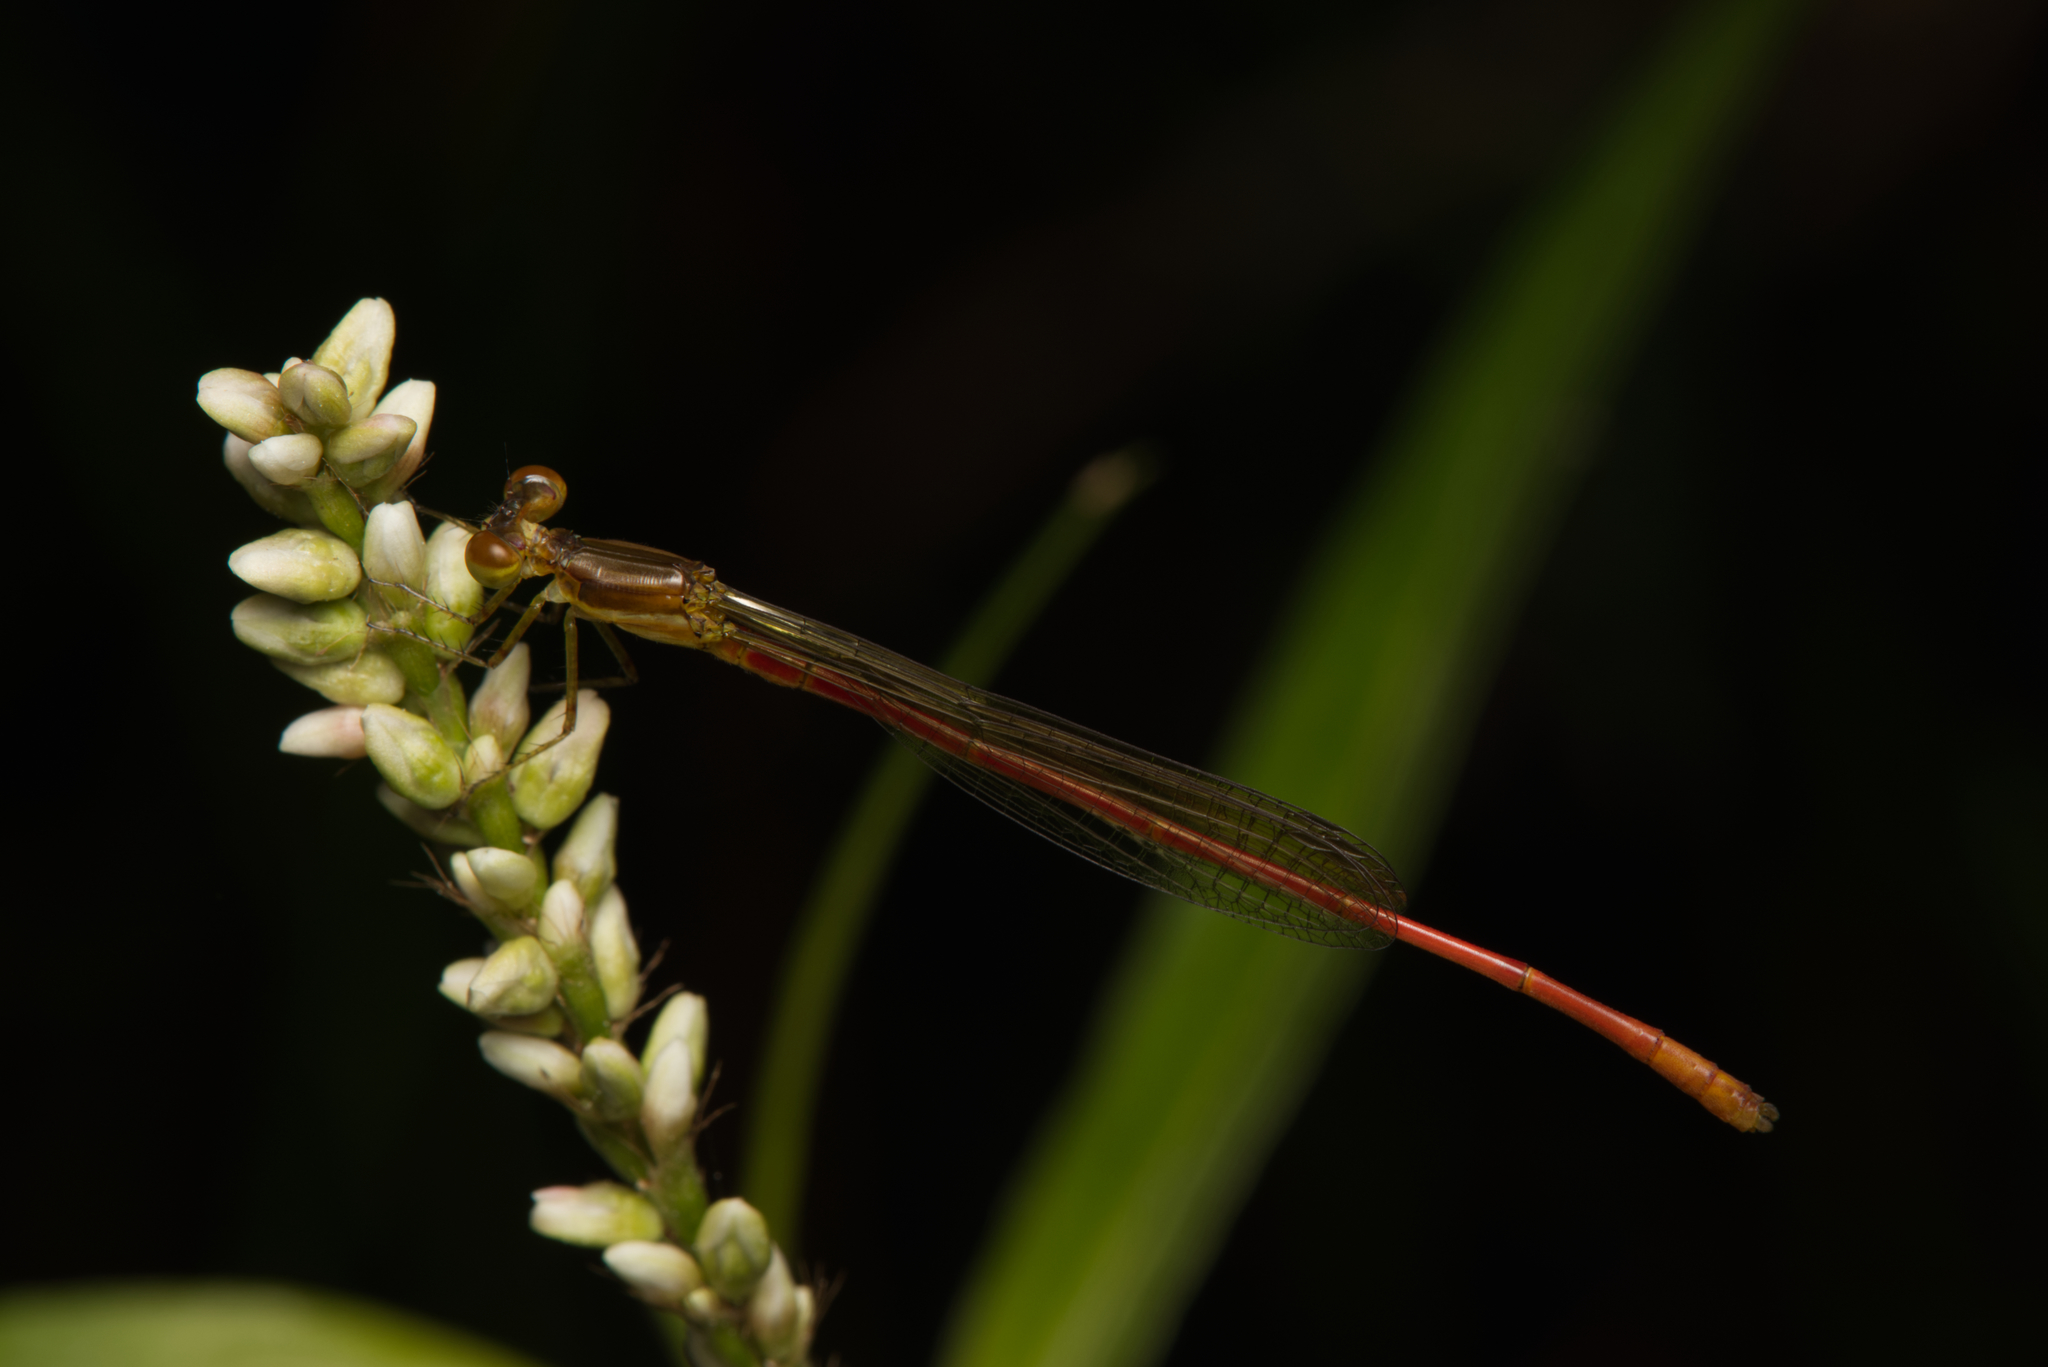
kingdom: Animalia
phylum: Arthropoda
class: Insecta
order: Odonata
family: Coenagrionidae
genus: Argiocnemis
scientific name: Argiocnemis rubescens
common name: Red-tipped shadefly
